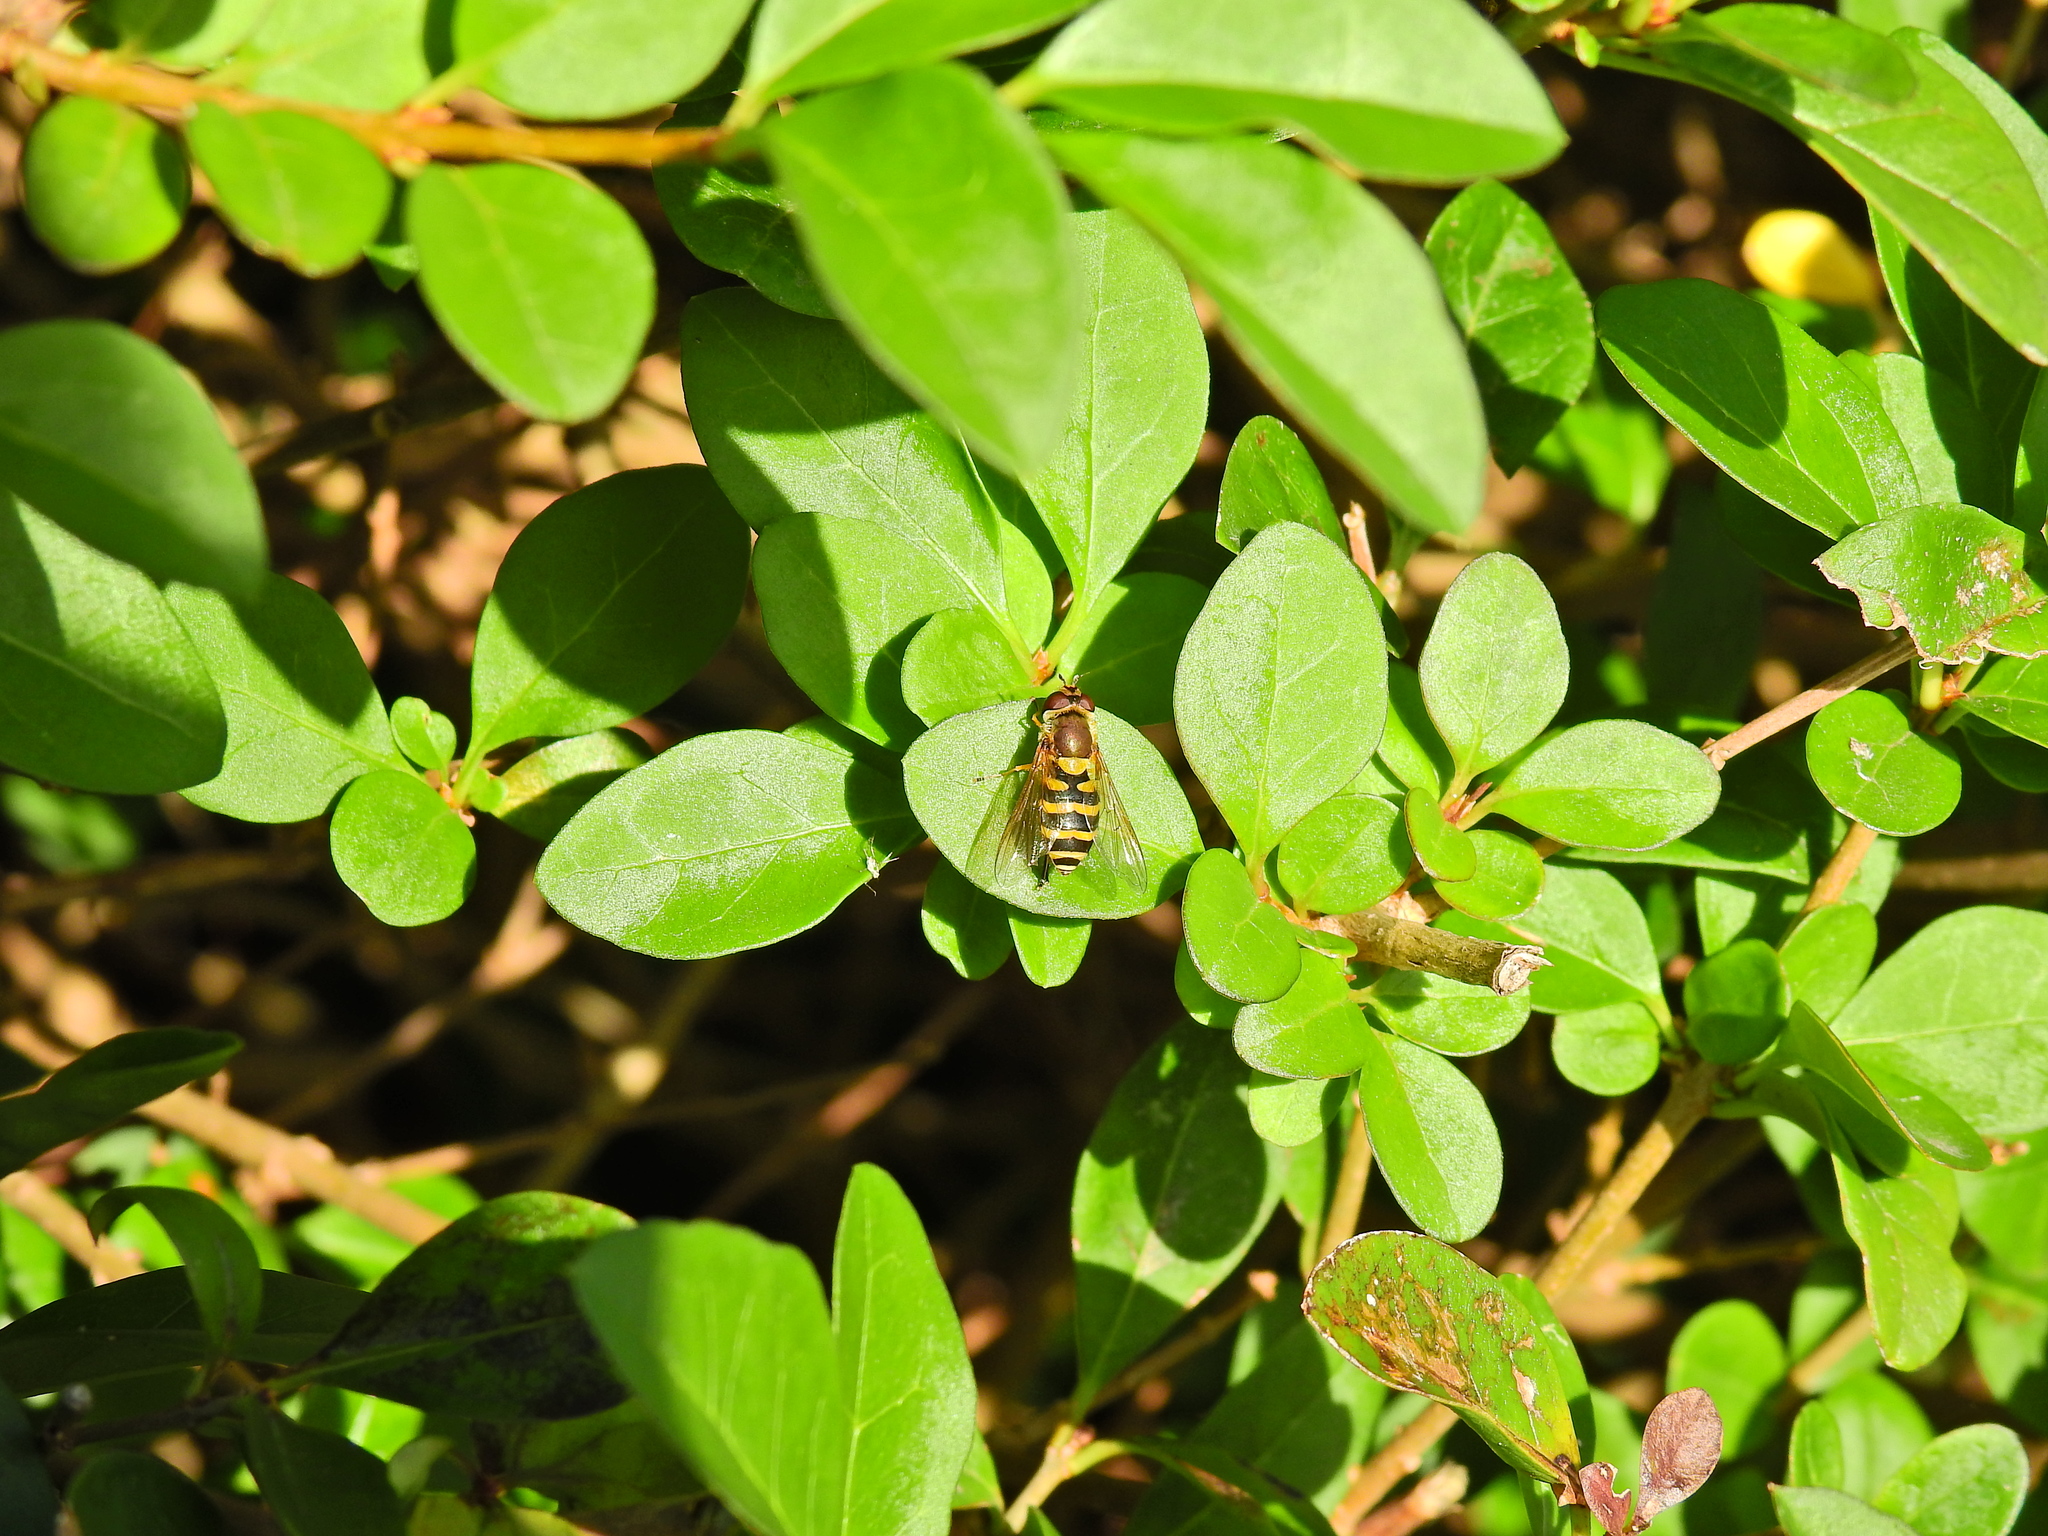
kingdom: Animalia
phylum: Arthropoda
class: Insecta
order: Diptera
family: Syrphidae
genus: Syrphus
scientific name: Syrphus
